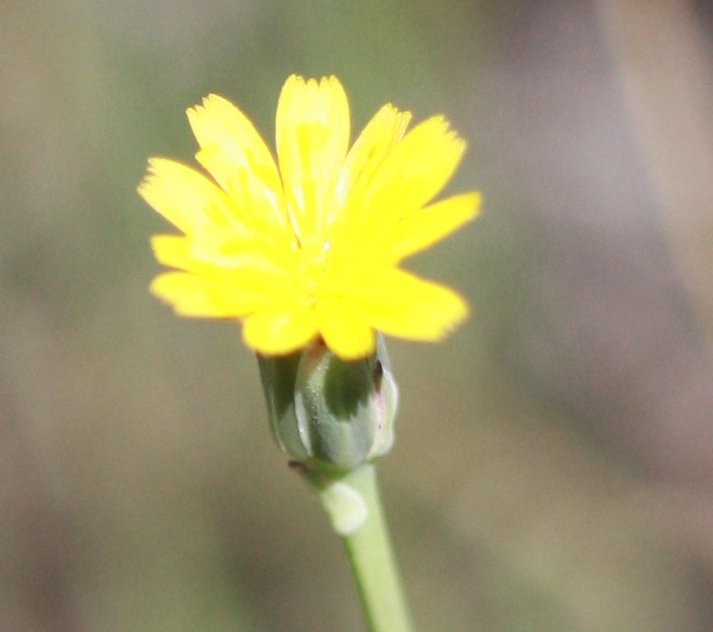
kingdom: Plantae
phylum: Tracheophyta
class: Magnoliopsida
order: Asterales
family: Asteraceae
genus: Hypochaeris
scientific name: Hypochaeris glabra
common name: Smooth catsear
